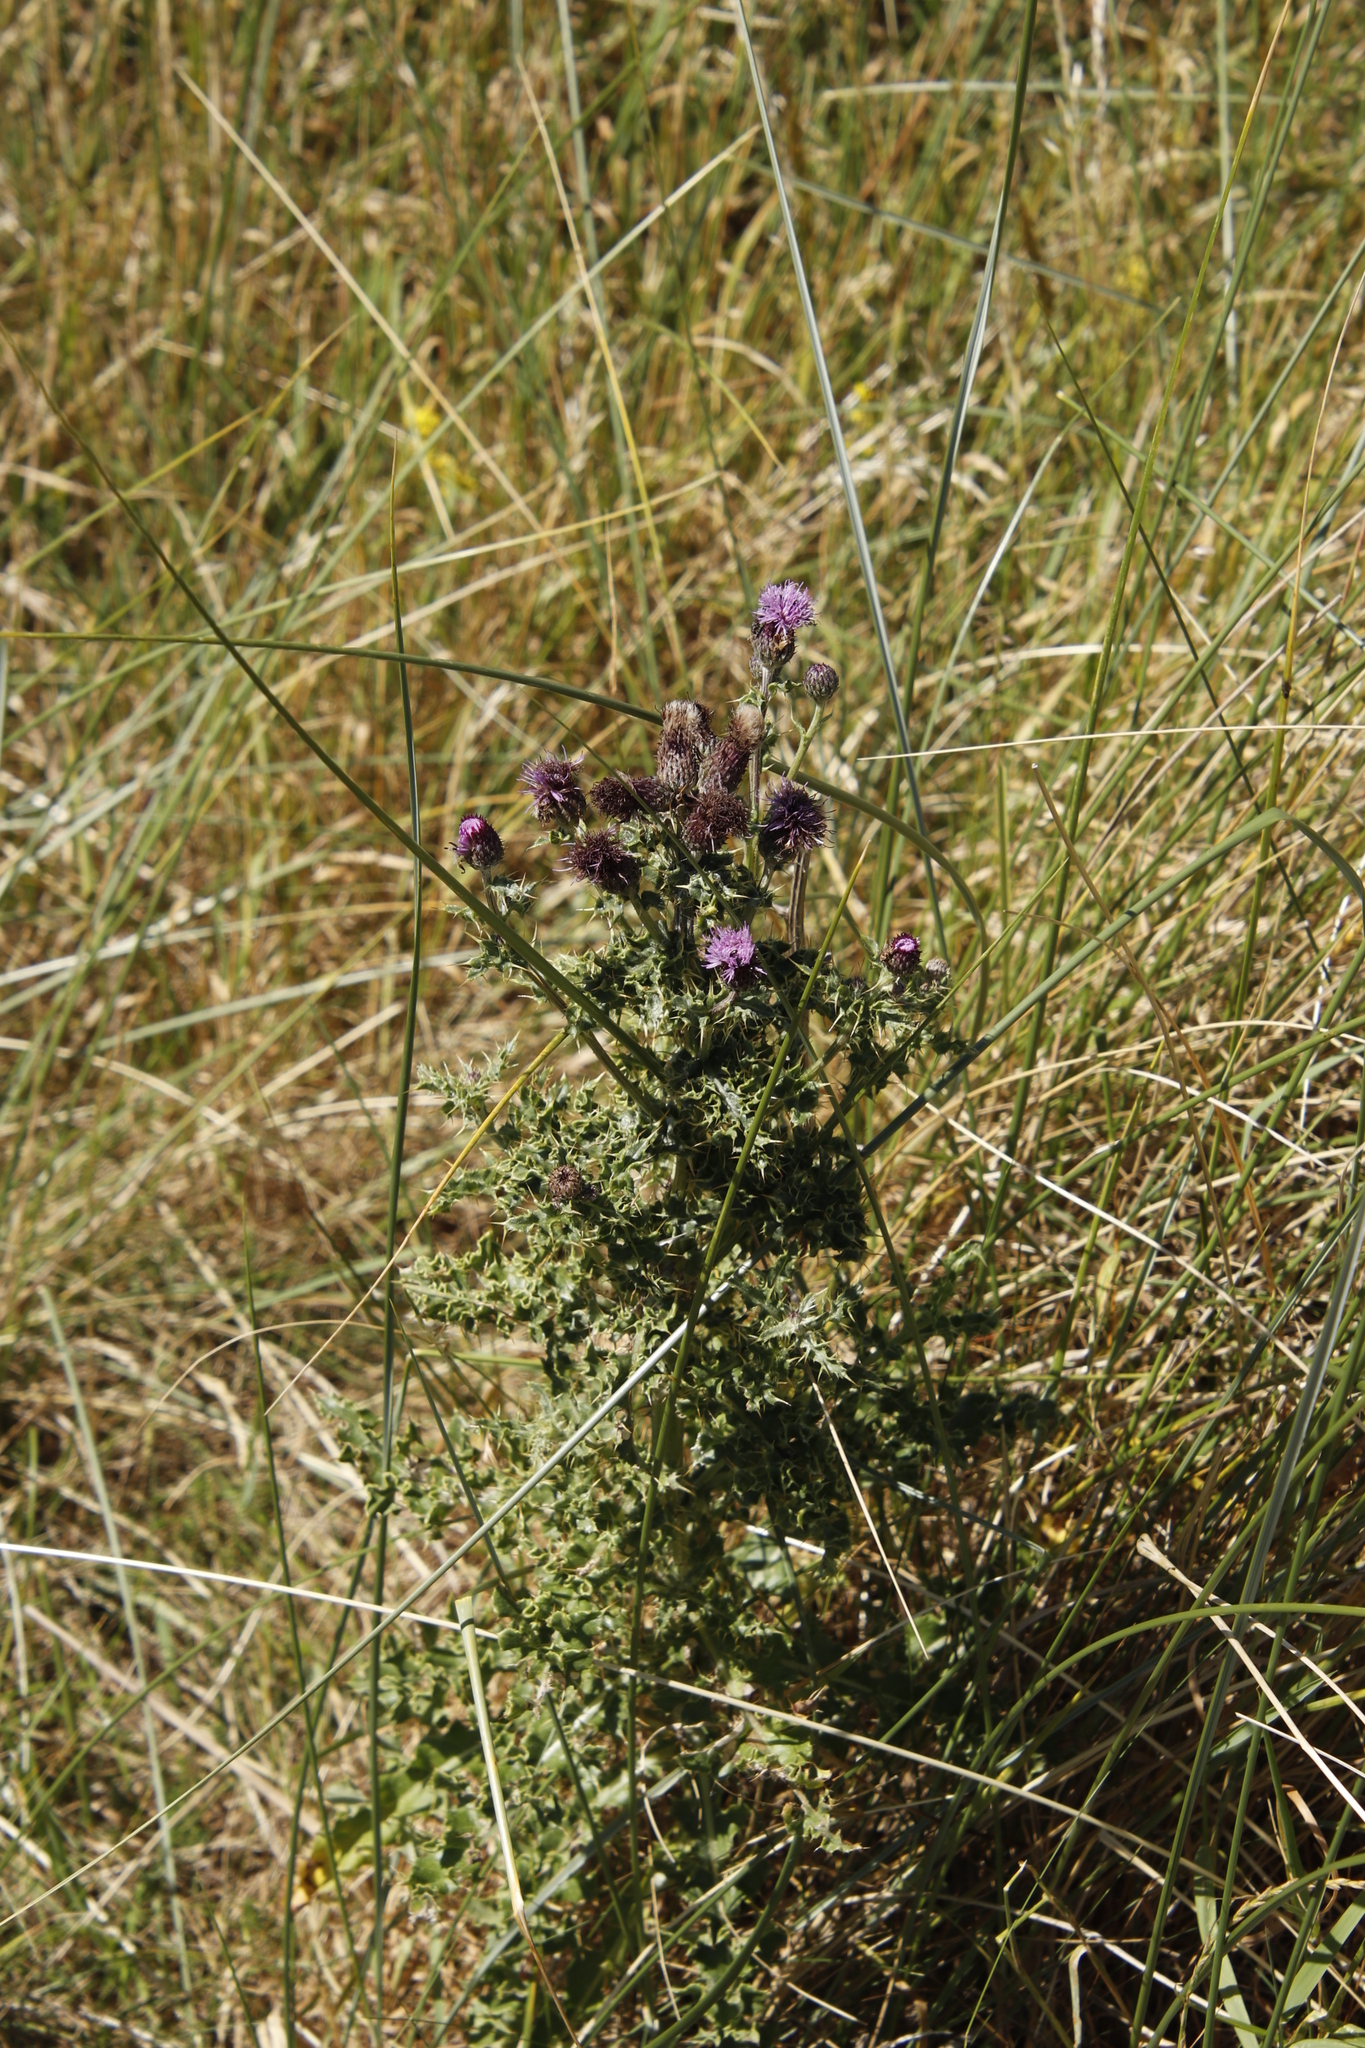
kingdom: Plantae
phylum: Tracheophyta
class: Magnoliopsida
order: Asterales
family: Asteraceae
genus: Cirsium
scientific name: Cirsium arvense
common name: Creeping thistle
